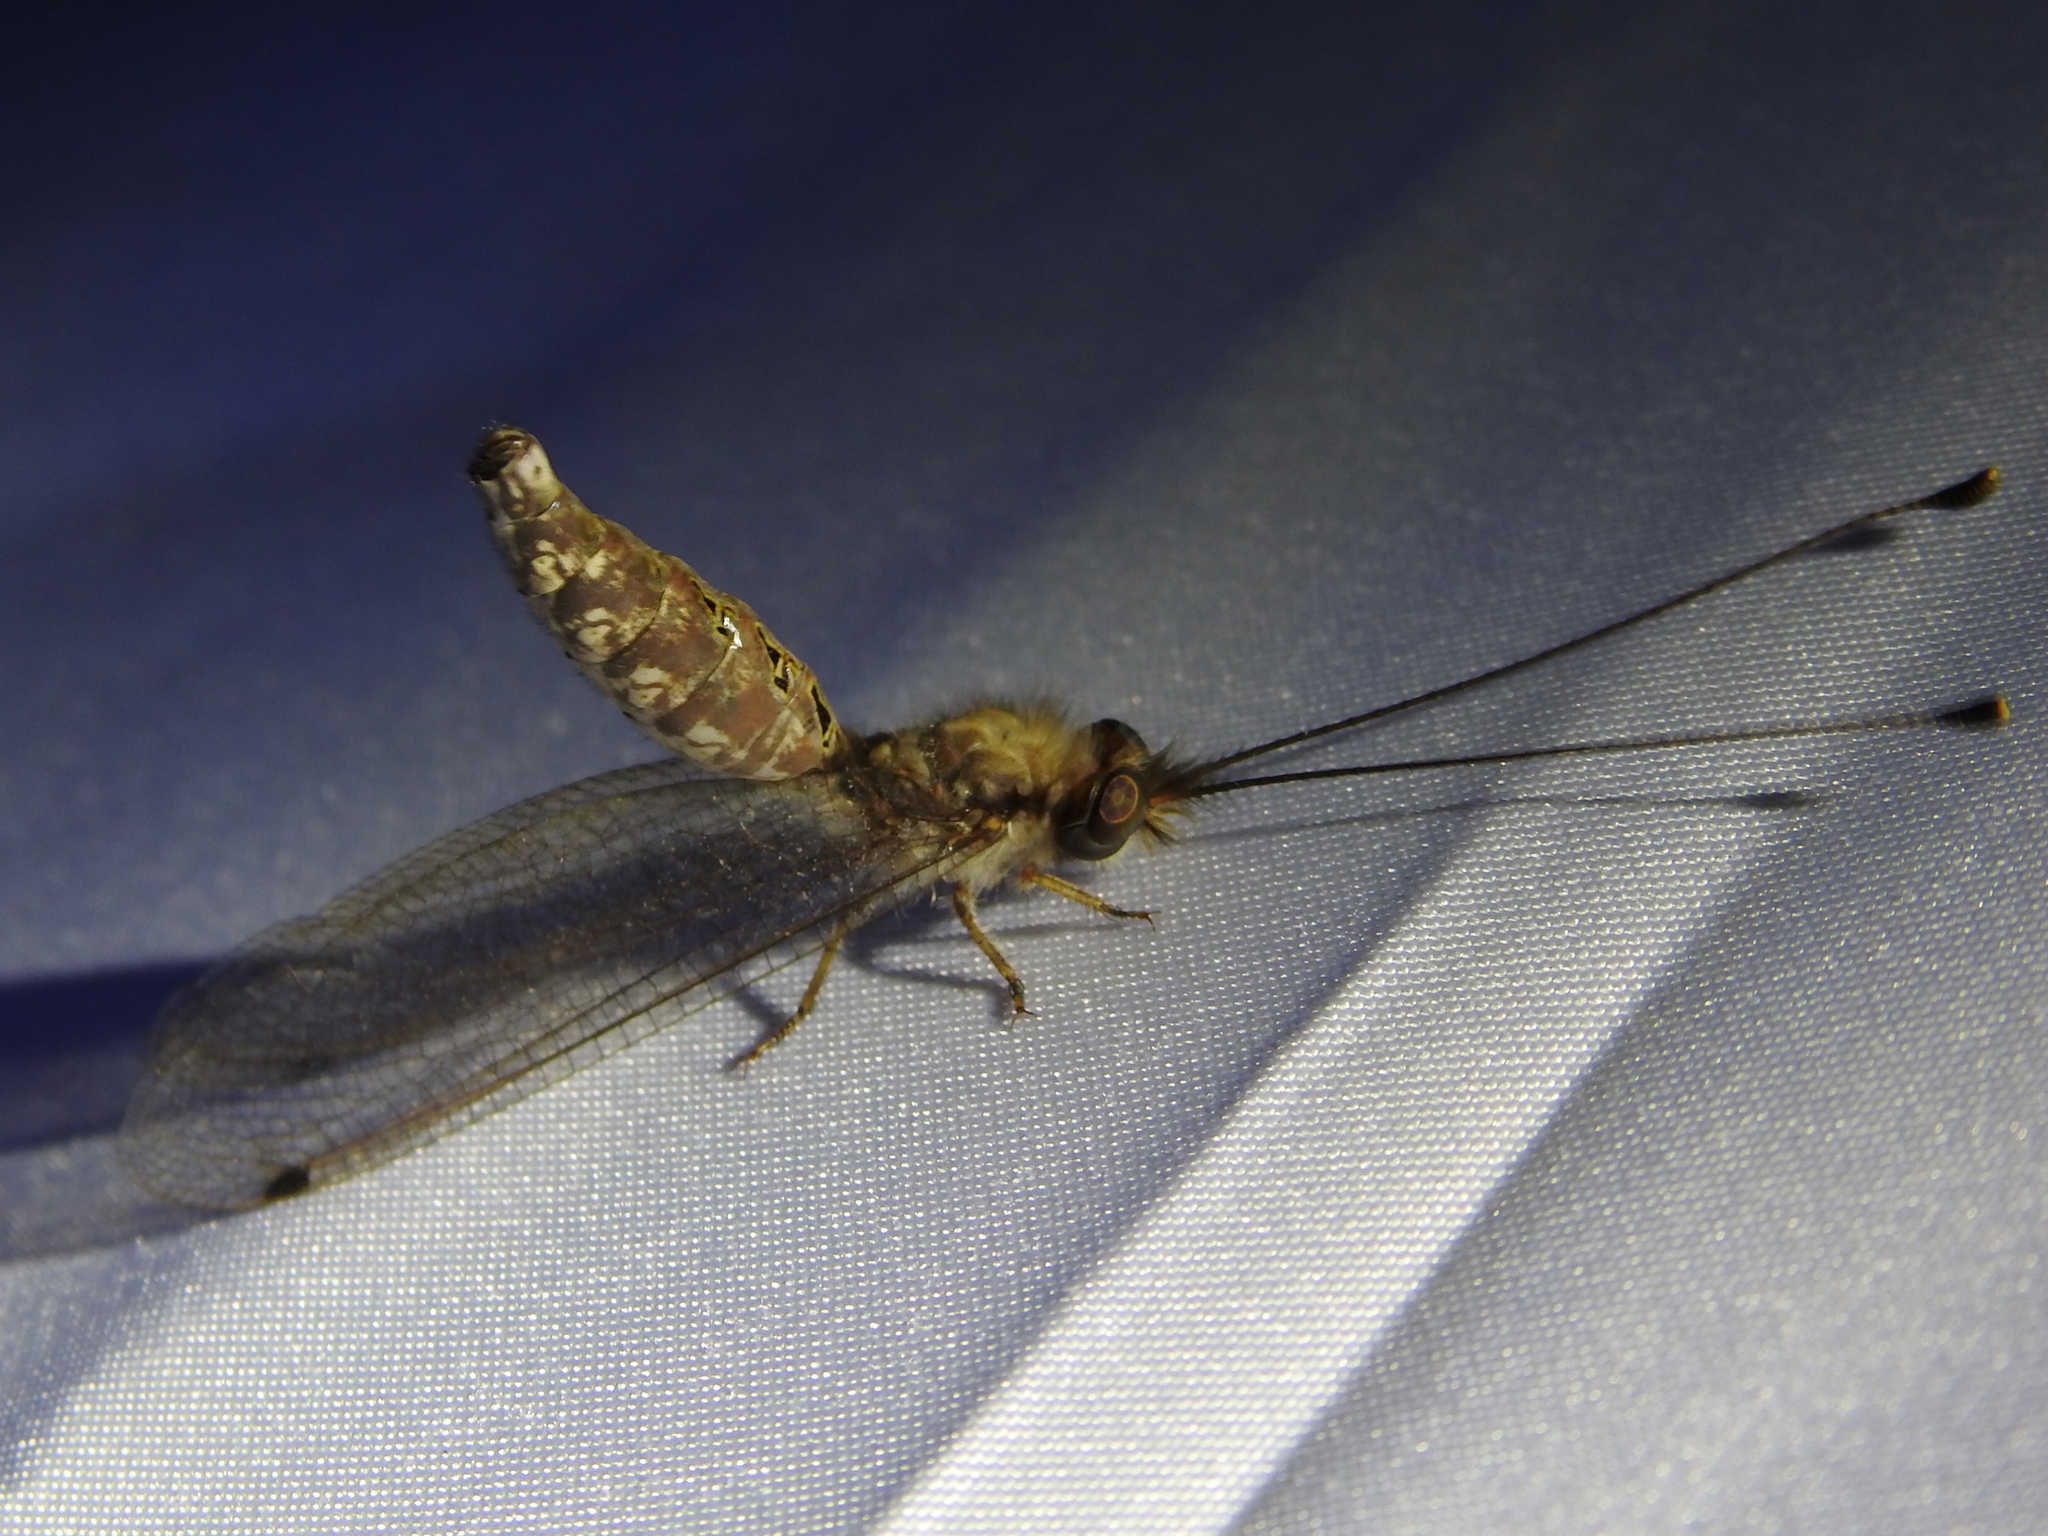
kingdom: Animalia
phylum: Arthropoda
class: Insecta
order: Neuroptera
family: Ascalaphidae
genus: Ululodes
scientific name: Ululodes macleayanus
